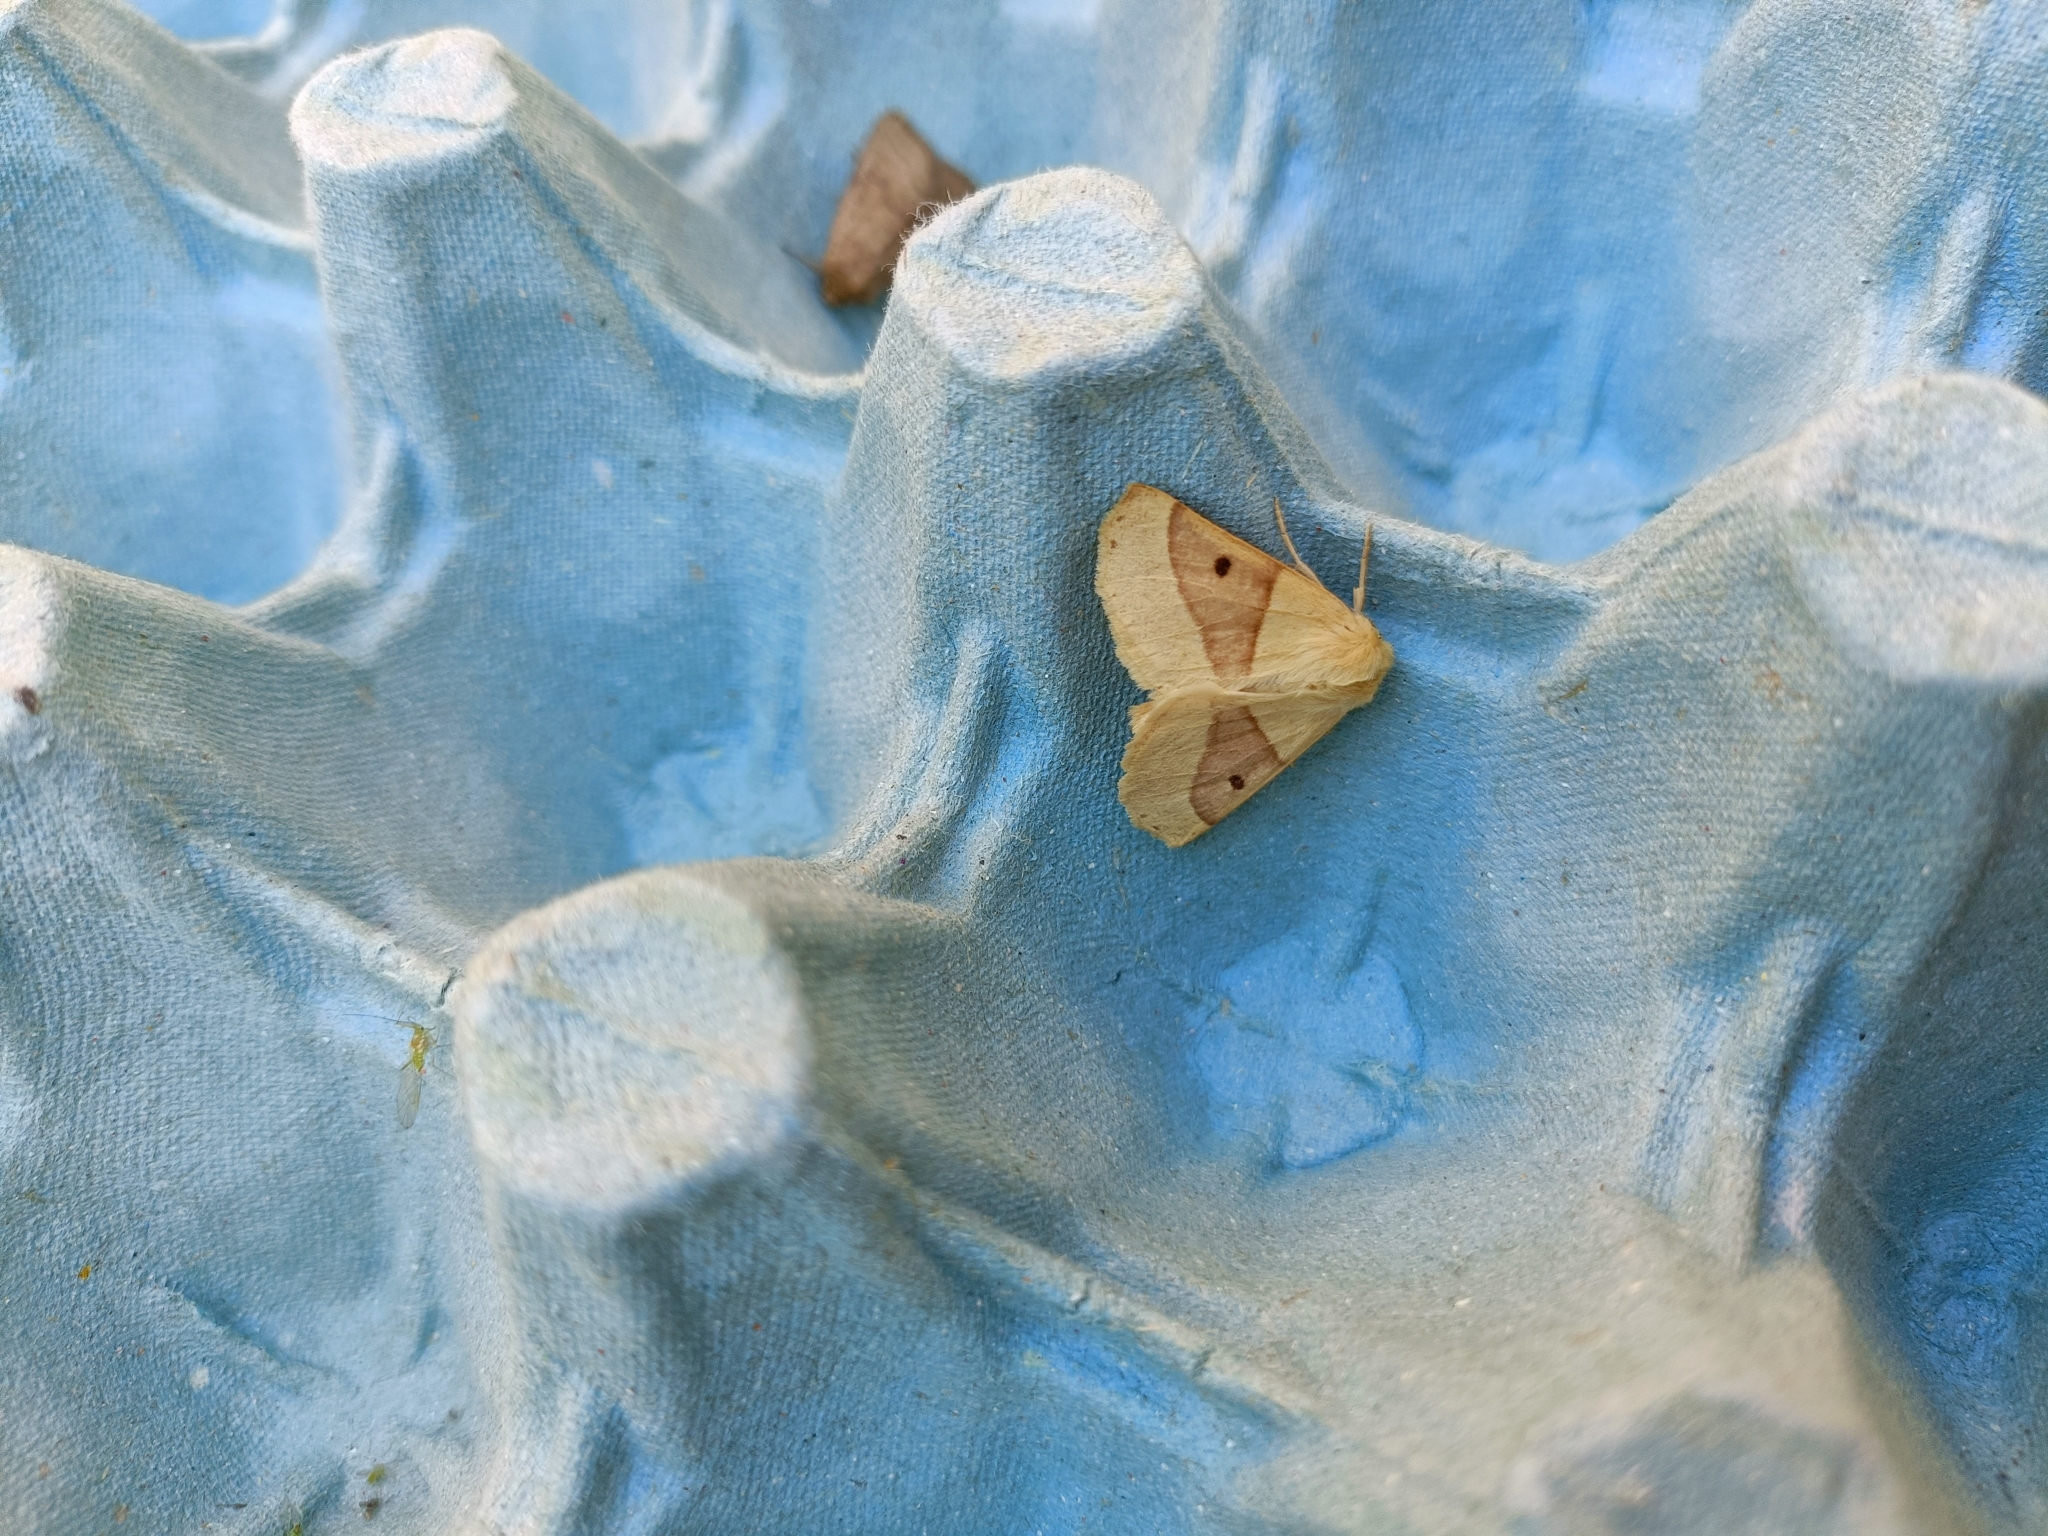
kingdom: Animalia
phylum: Arthropoda
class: Insecta
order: Lepidoptera
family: Geometridae
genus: Crocallis
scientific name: Crocallis elinguaria
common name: Scalloped oak
